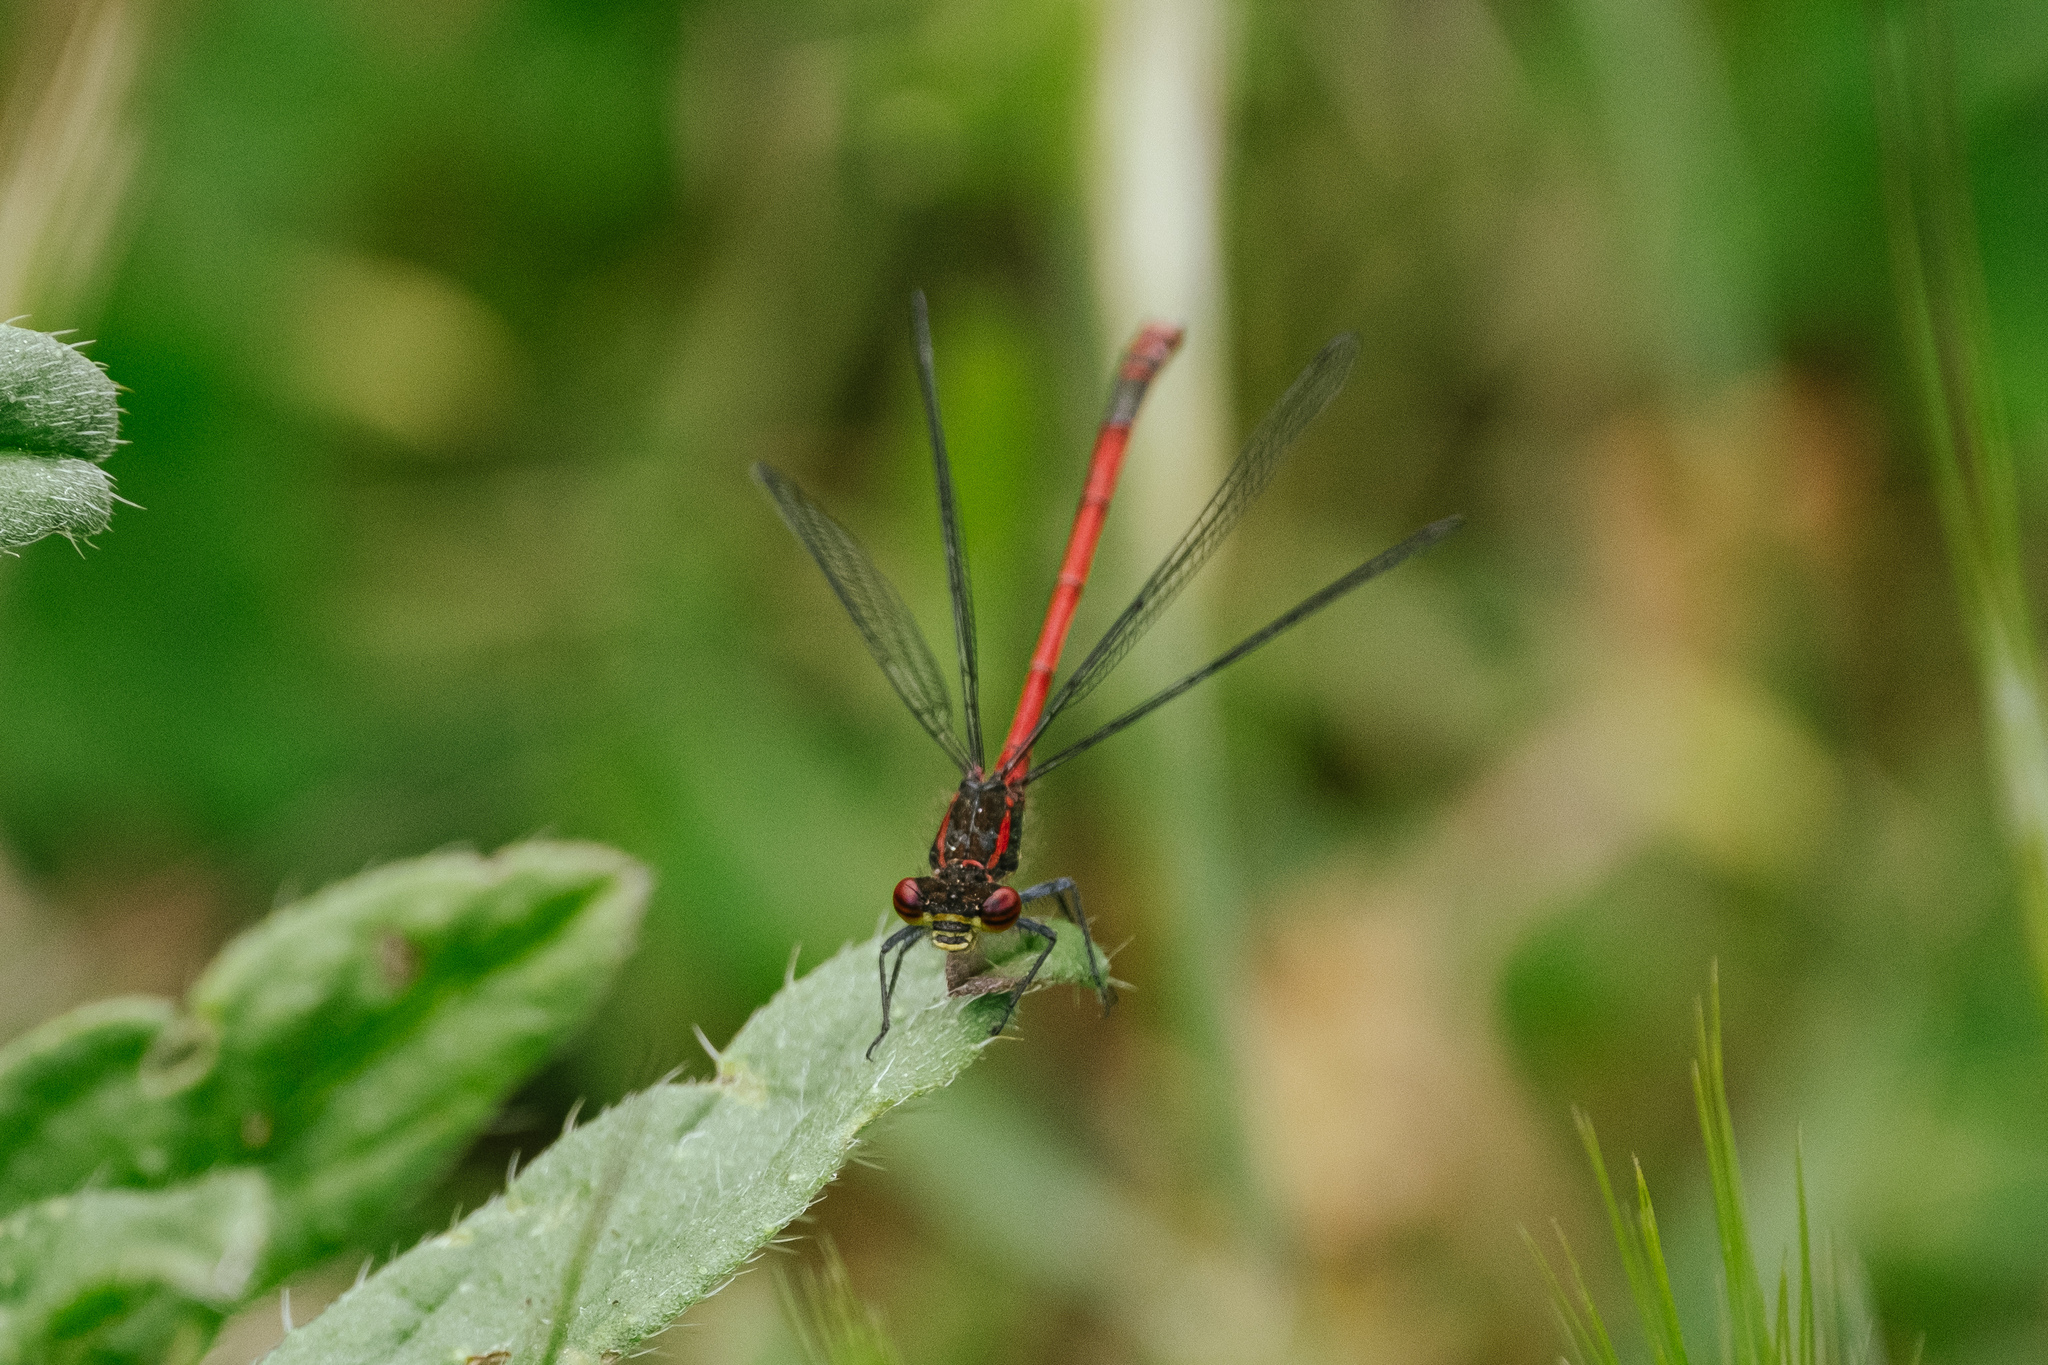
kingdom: Animalia
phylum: Arthropoda
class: Insecta
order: Odonata
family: Coenagrionidae
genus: Pyrrhosoma
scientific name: Pyrrhosoma nymphula
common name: Large red damsel
